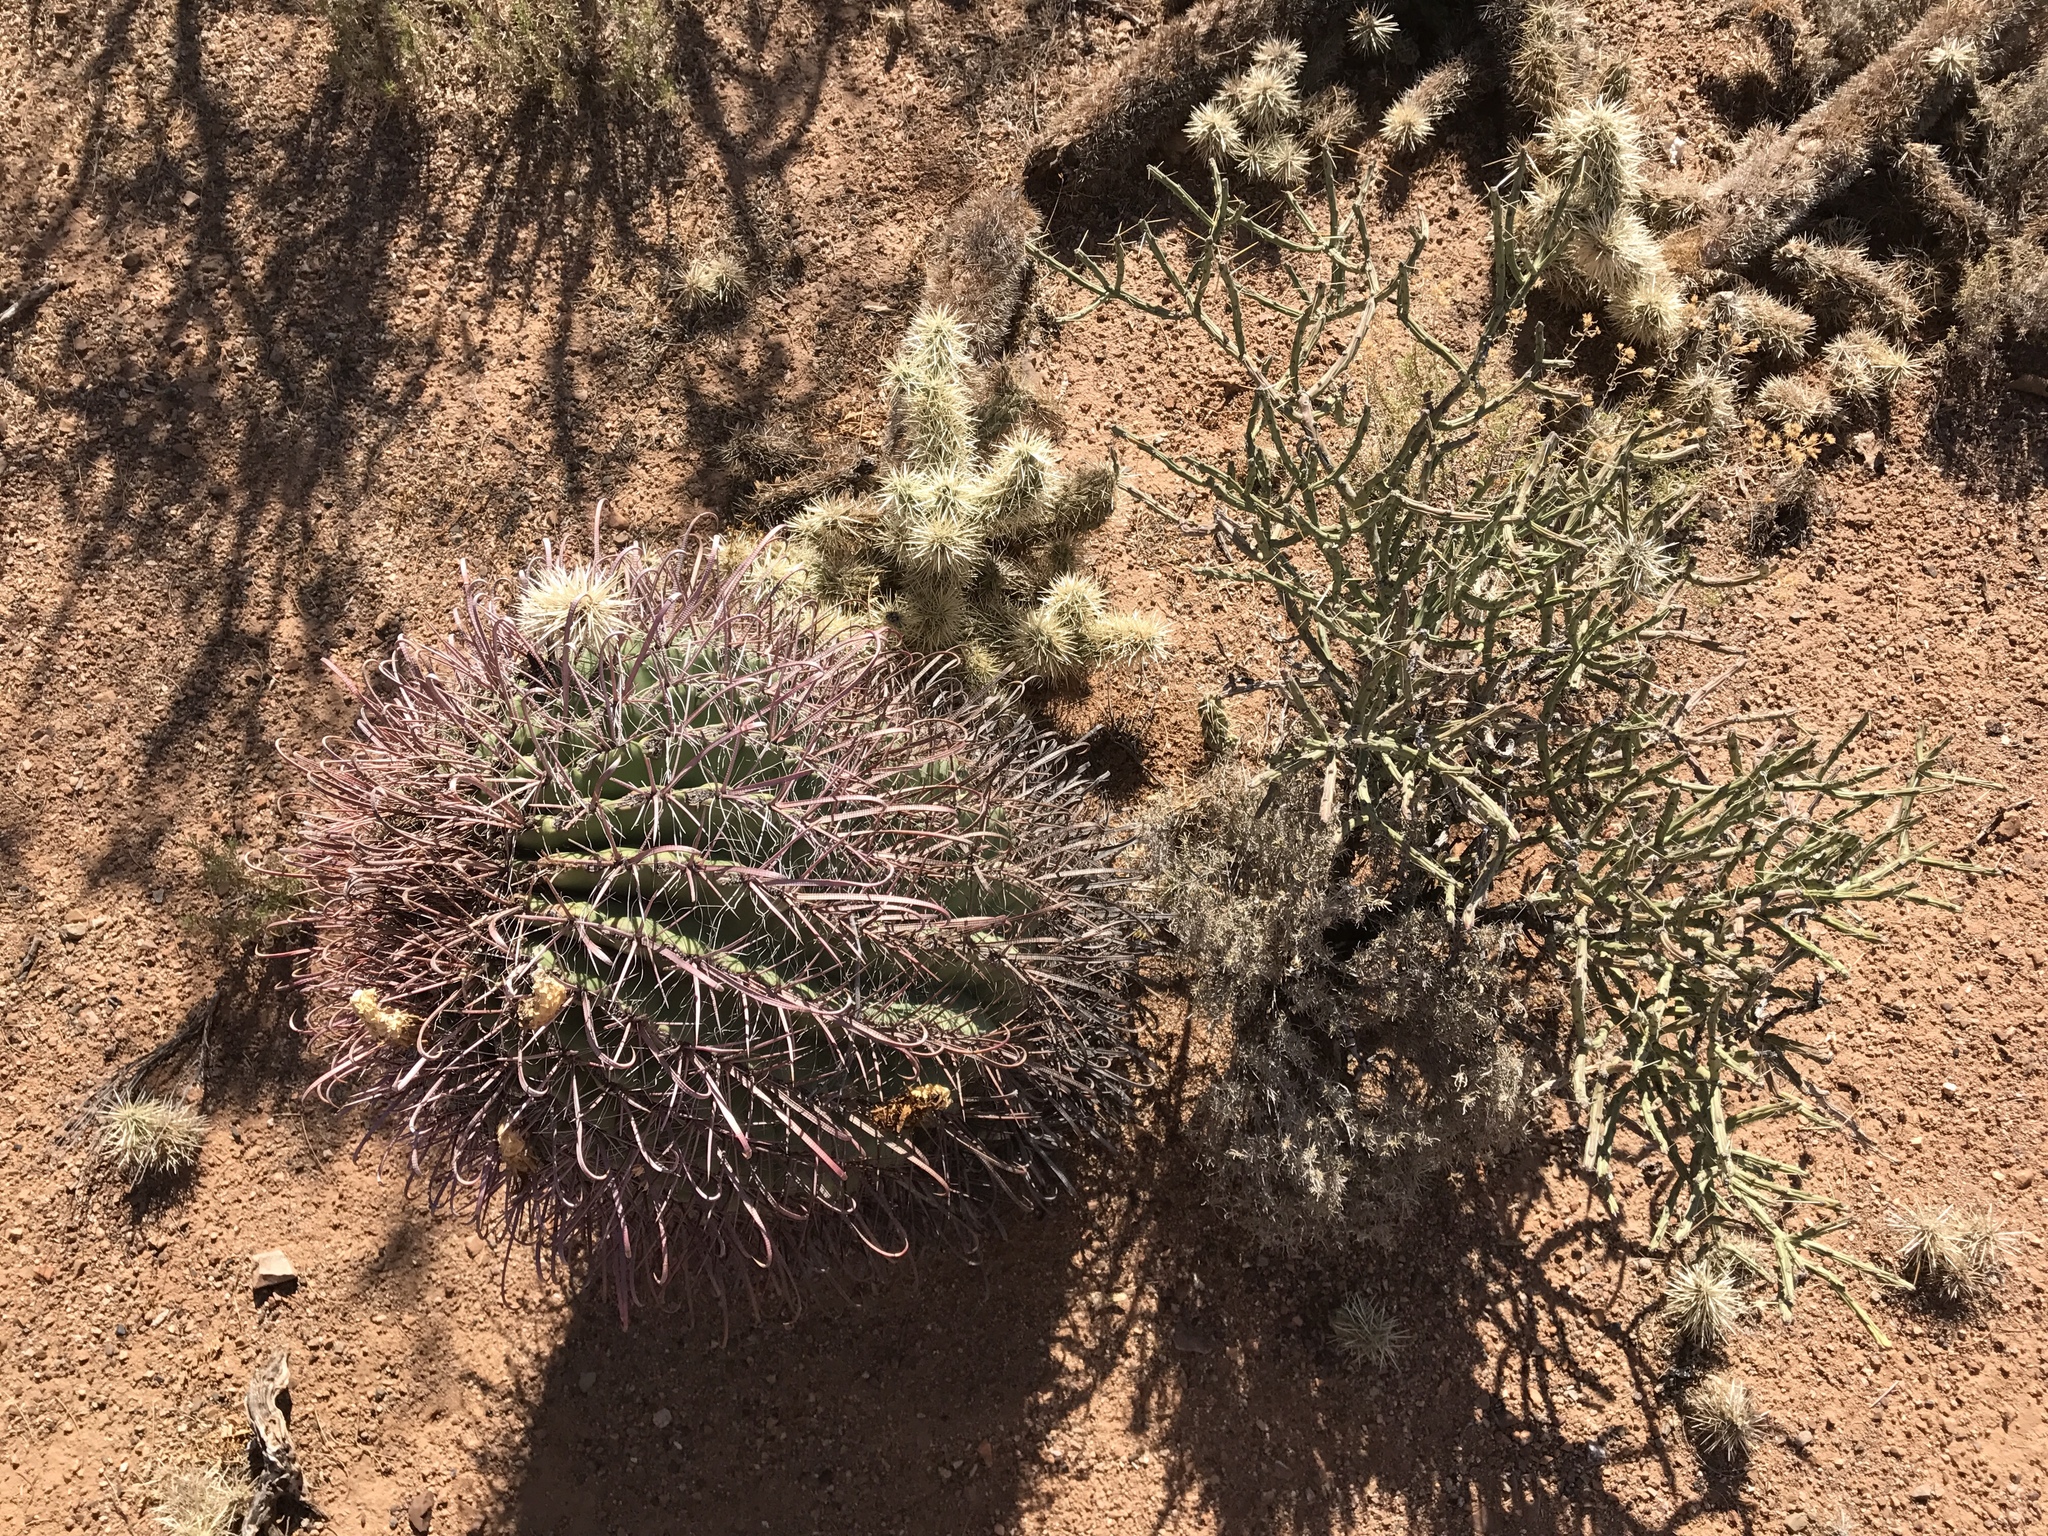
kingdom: Plantae
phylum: Tracheophyta
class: Magnoliopsida
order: Caryophyllales
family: Cactaceae
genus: Ferocactus
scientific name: Ferocactus wislizeni
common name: Candy barrel cactus
